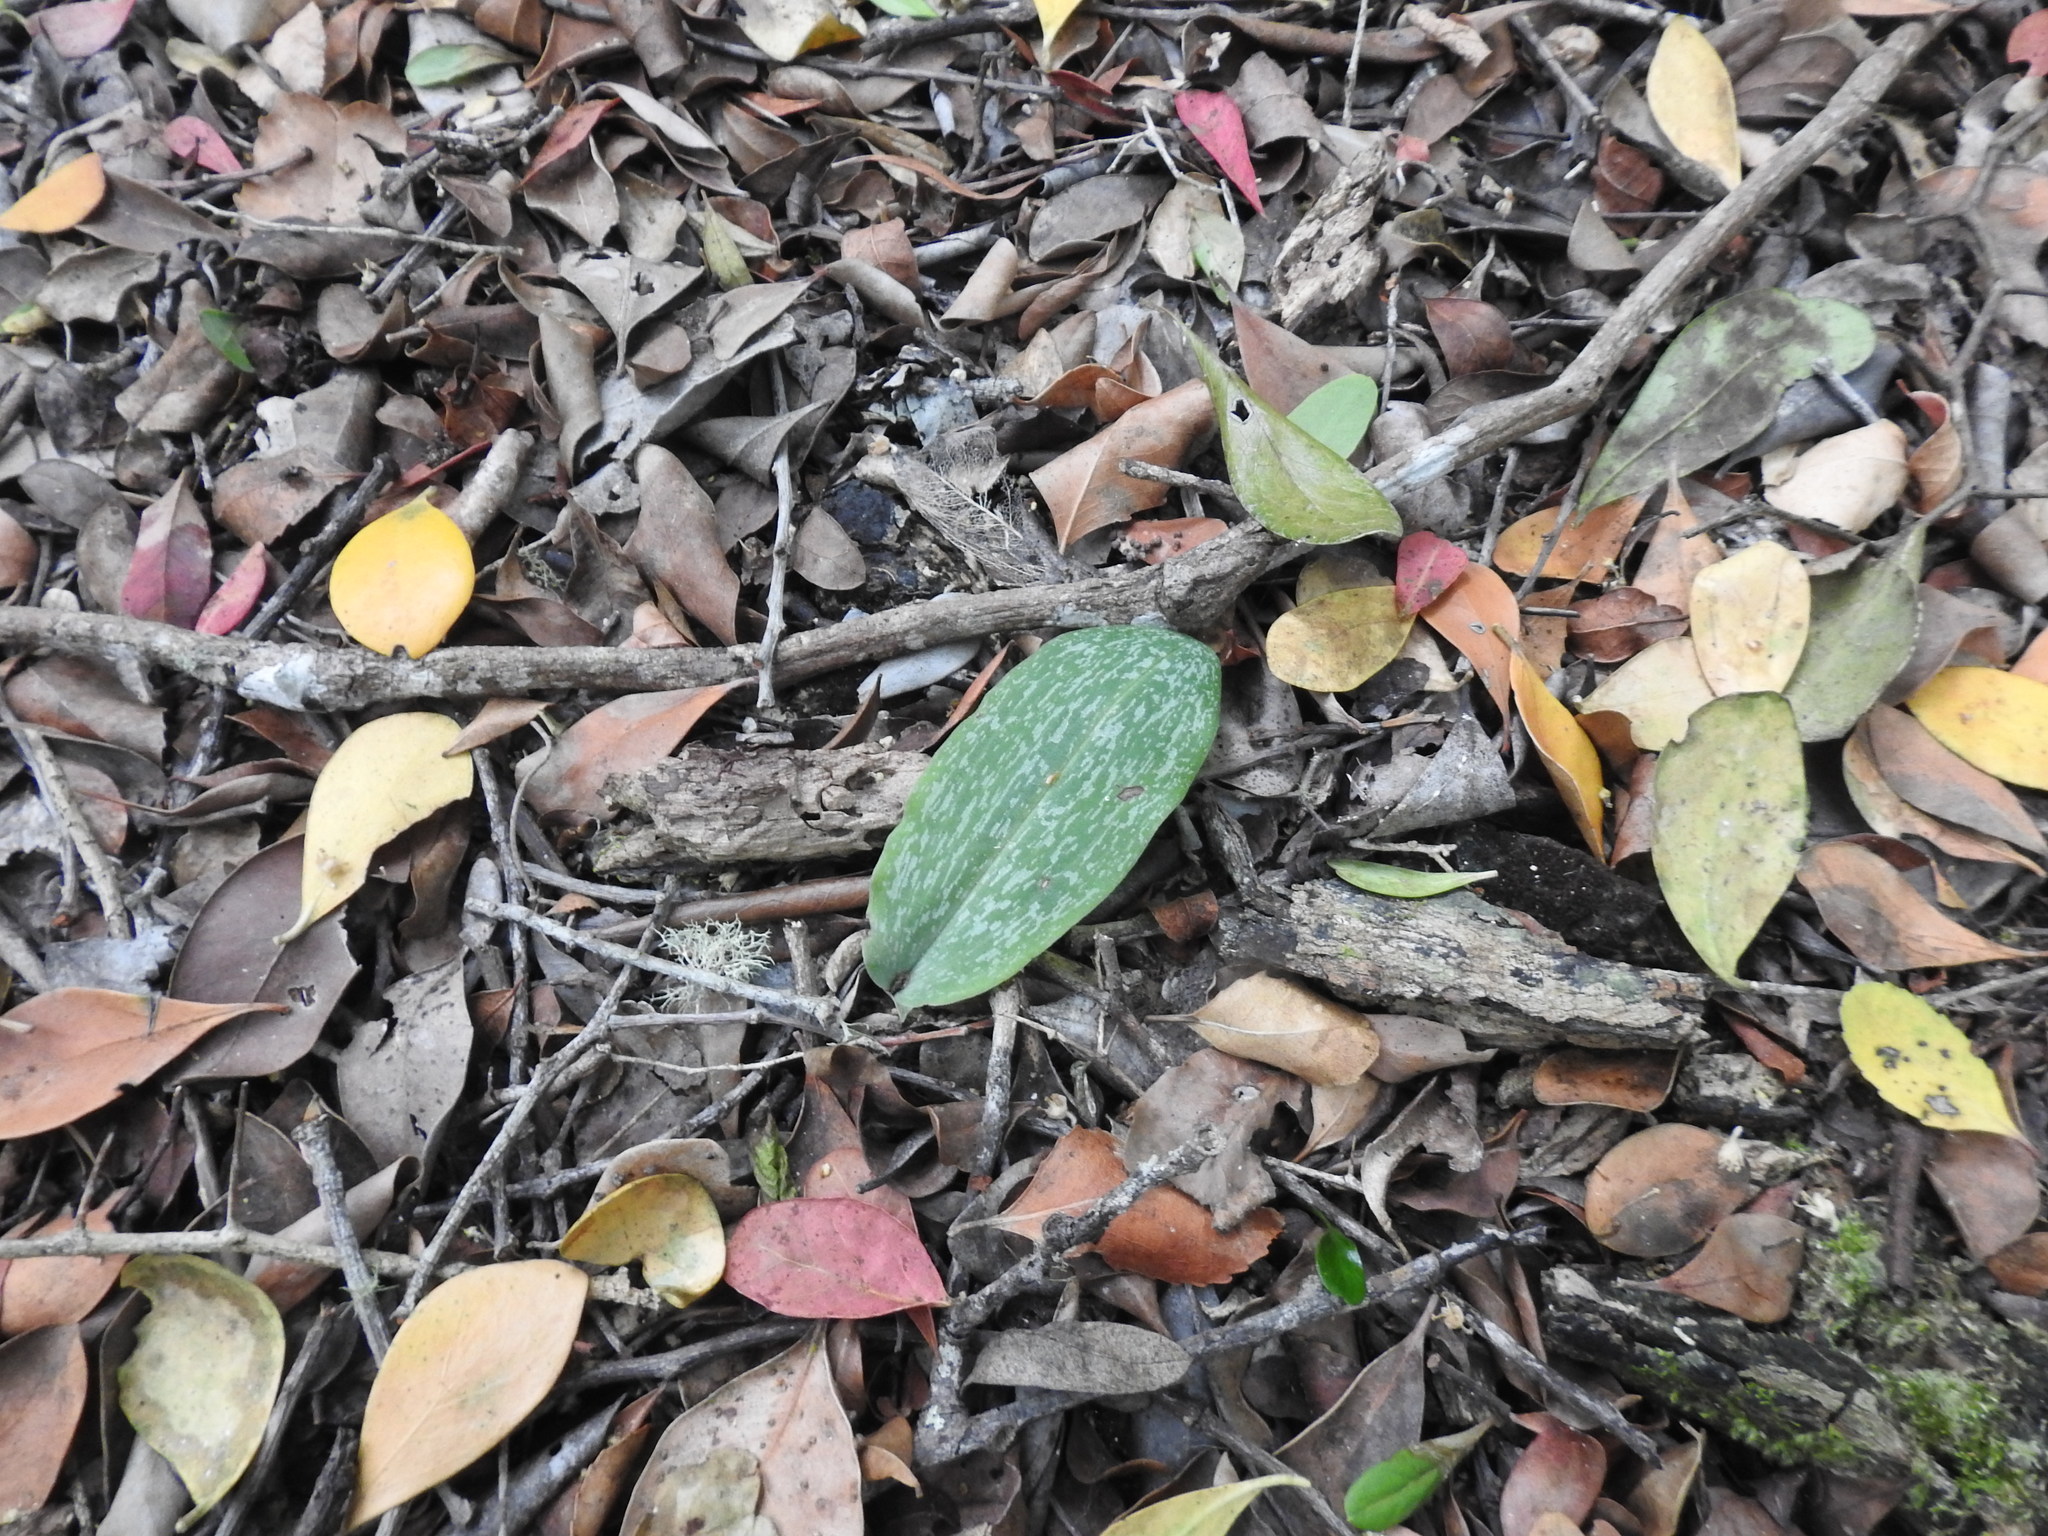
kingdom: Plantae
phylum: Tracheophyta
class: Liliopsida
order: Asparagales
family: Orchidaceae
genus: Habenaria
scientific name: Habenaria arenaria
